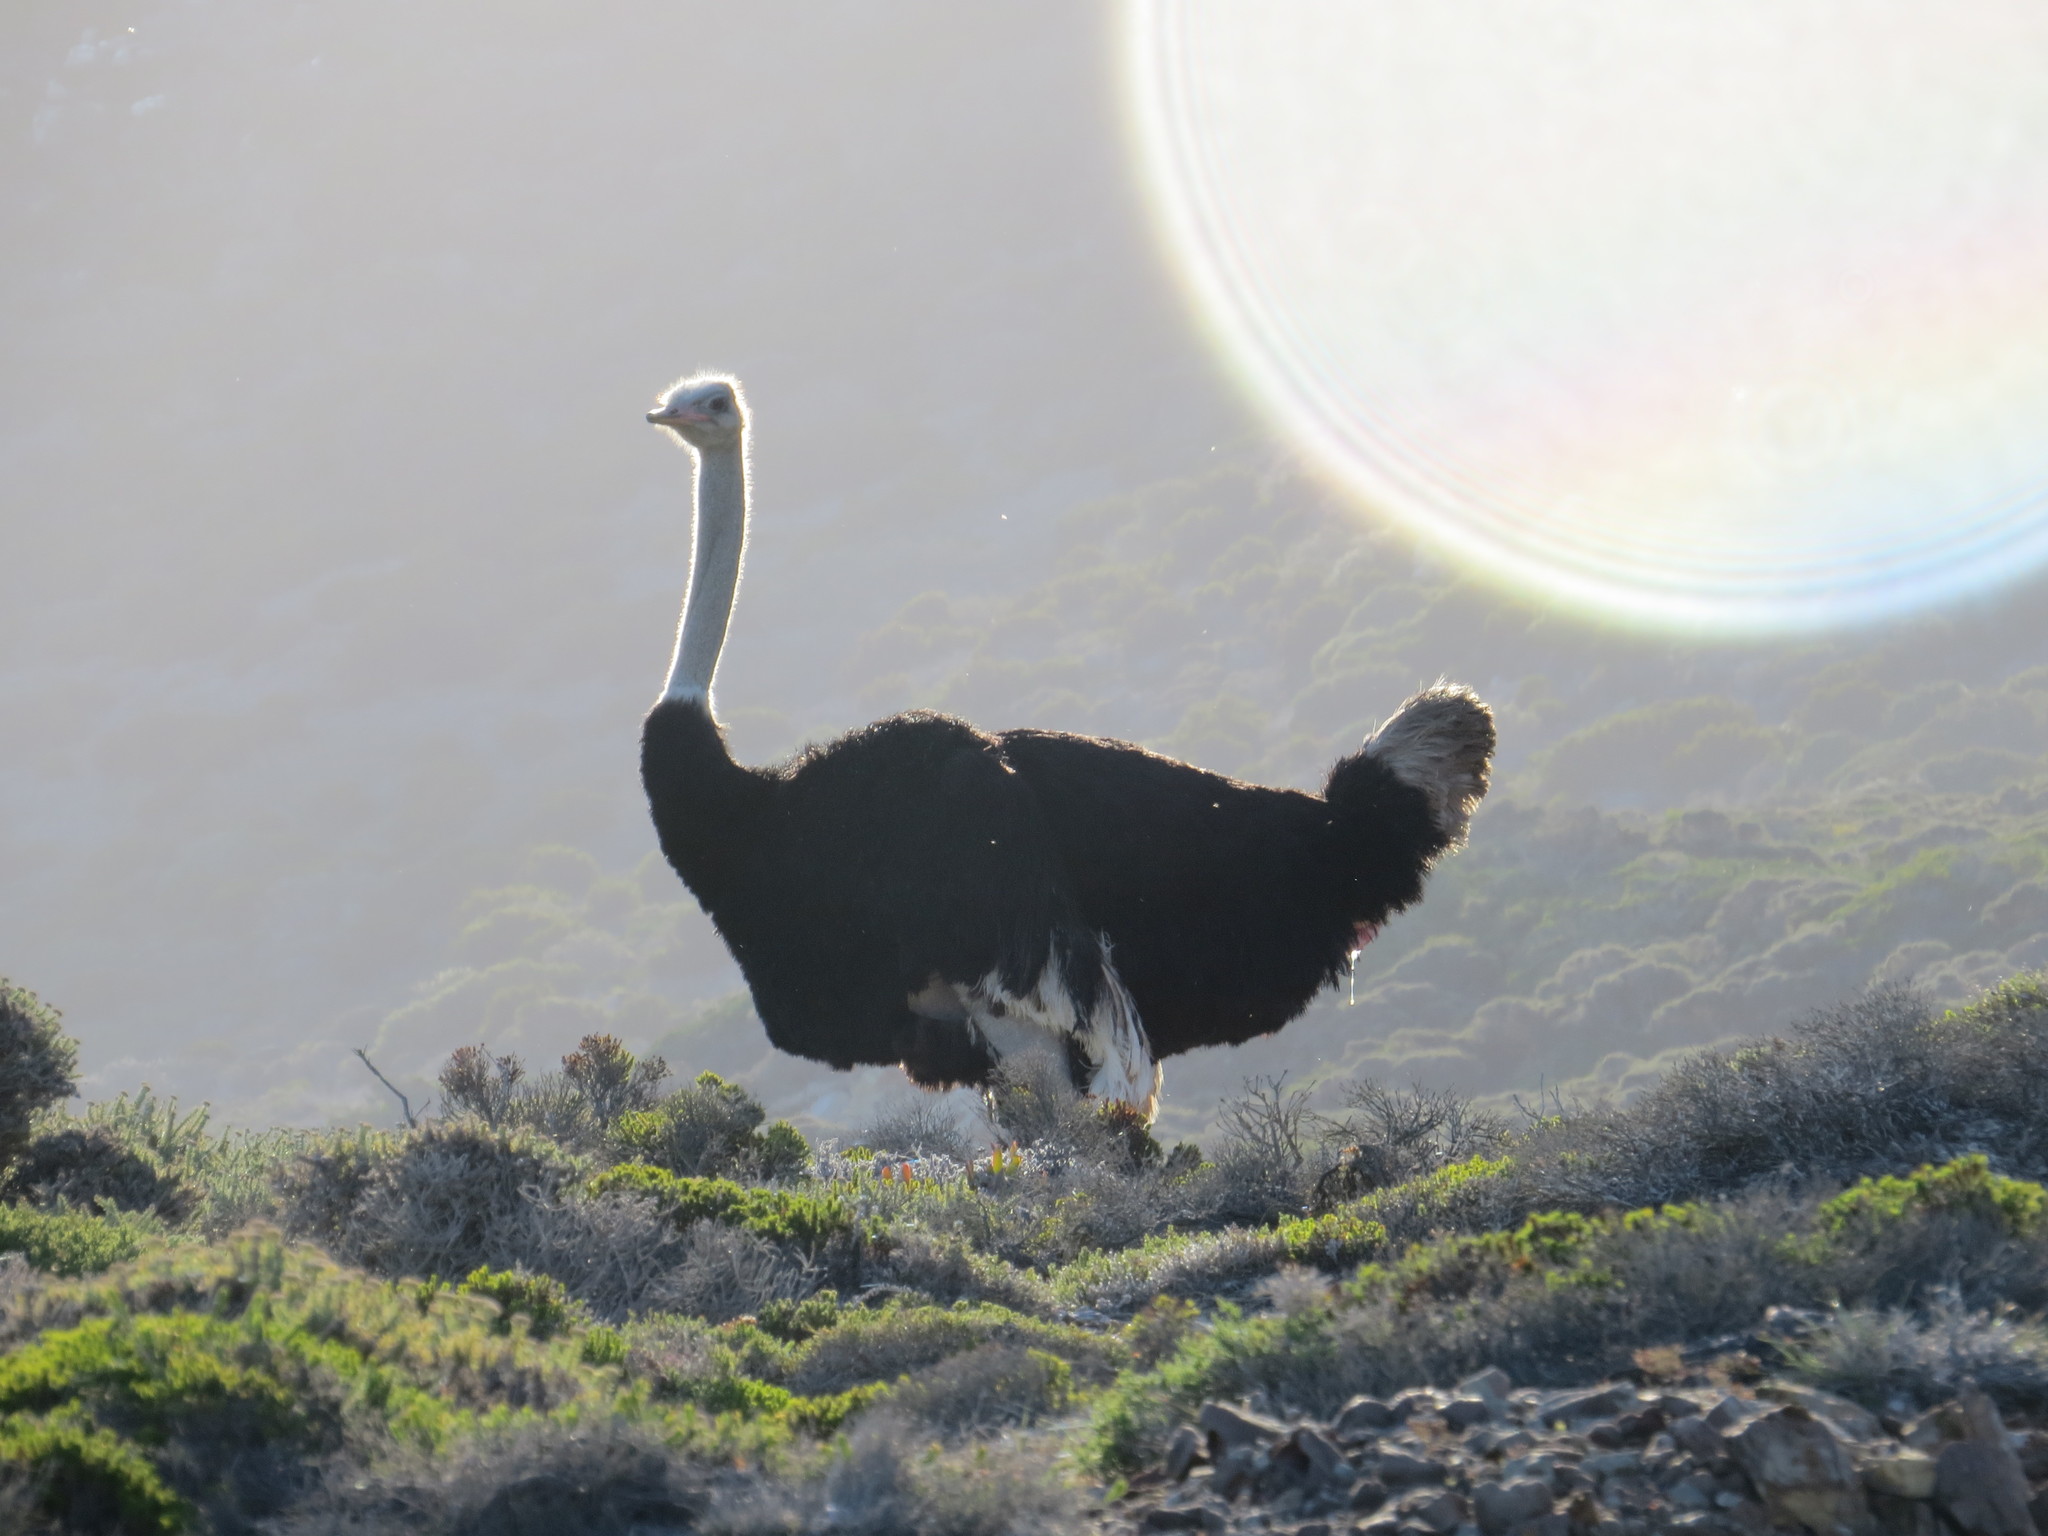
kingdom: Animalia
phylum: Chordata
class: Aves
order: Struthioniformes
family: Struthionidae
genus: Struthio
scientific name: Struthio camelus
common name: Common ostrich
